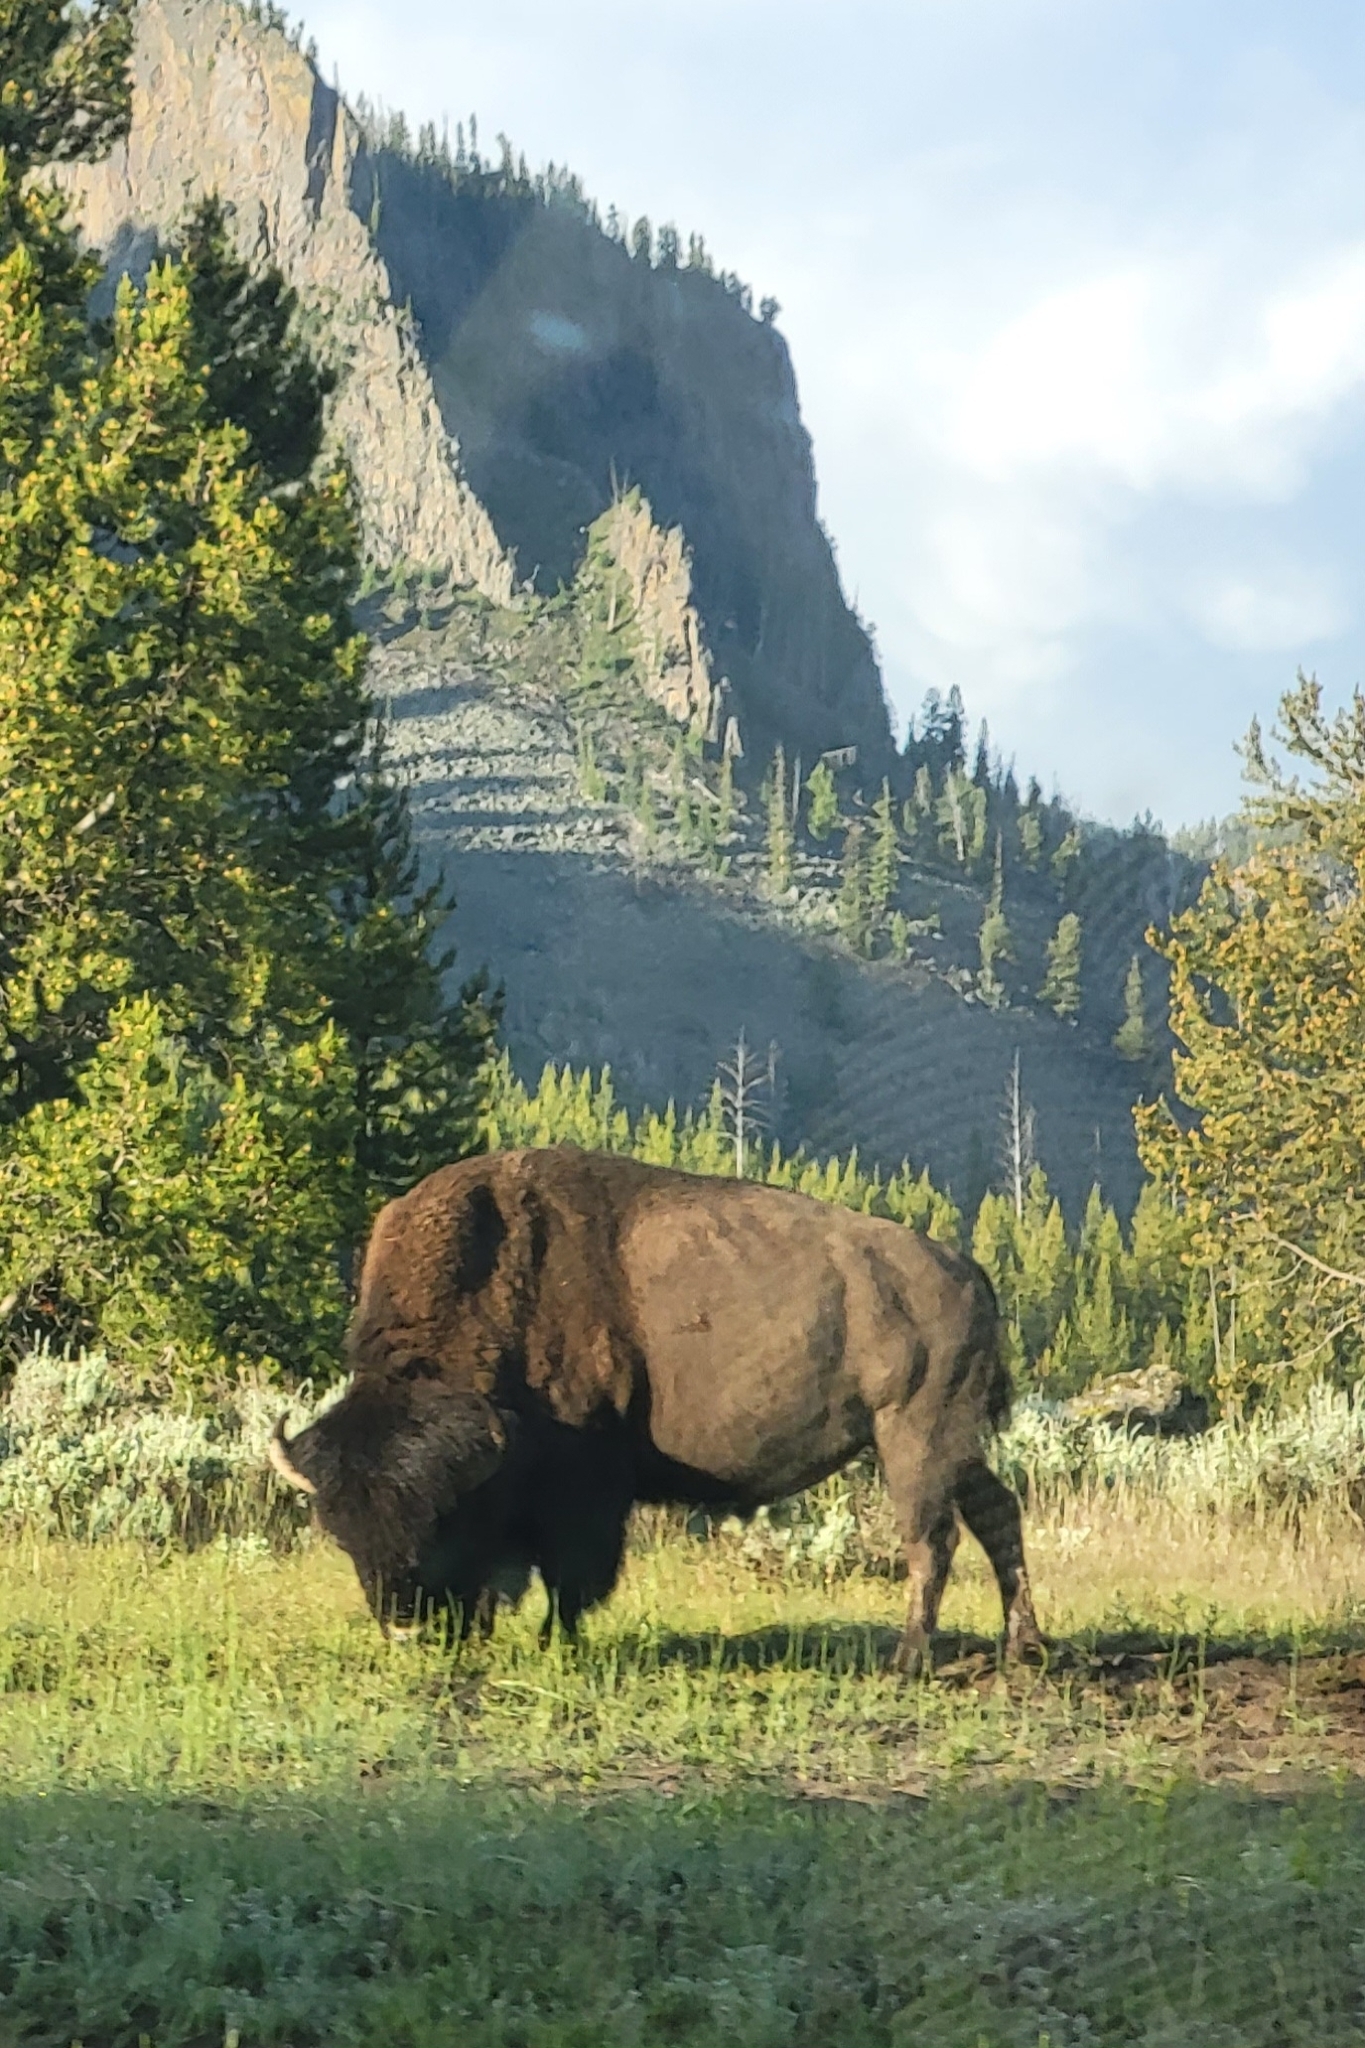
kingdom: Animalia
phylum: Chordata
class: Mammalia
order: Artiodactyla
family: Bovidae
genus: Bison
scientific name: Bison bison
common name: American bison
